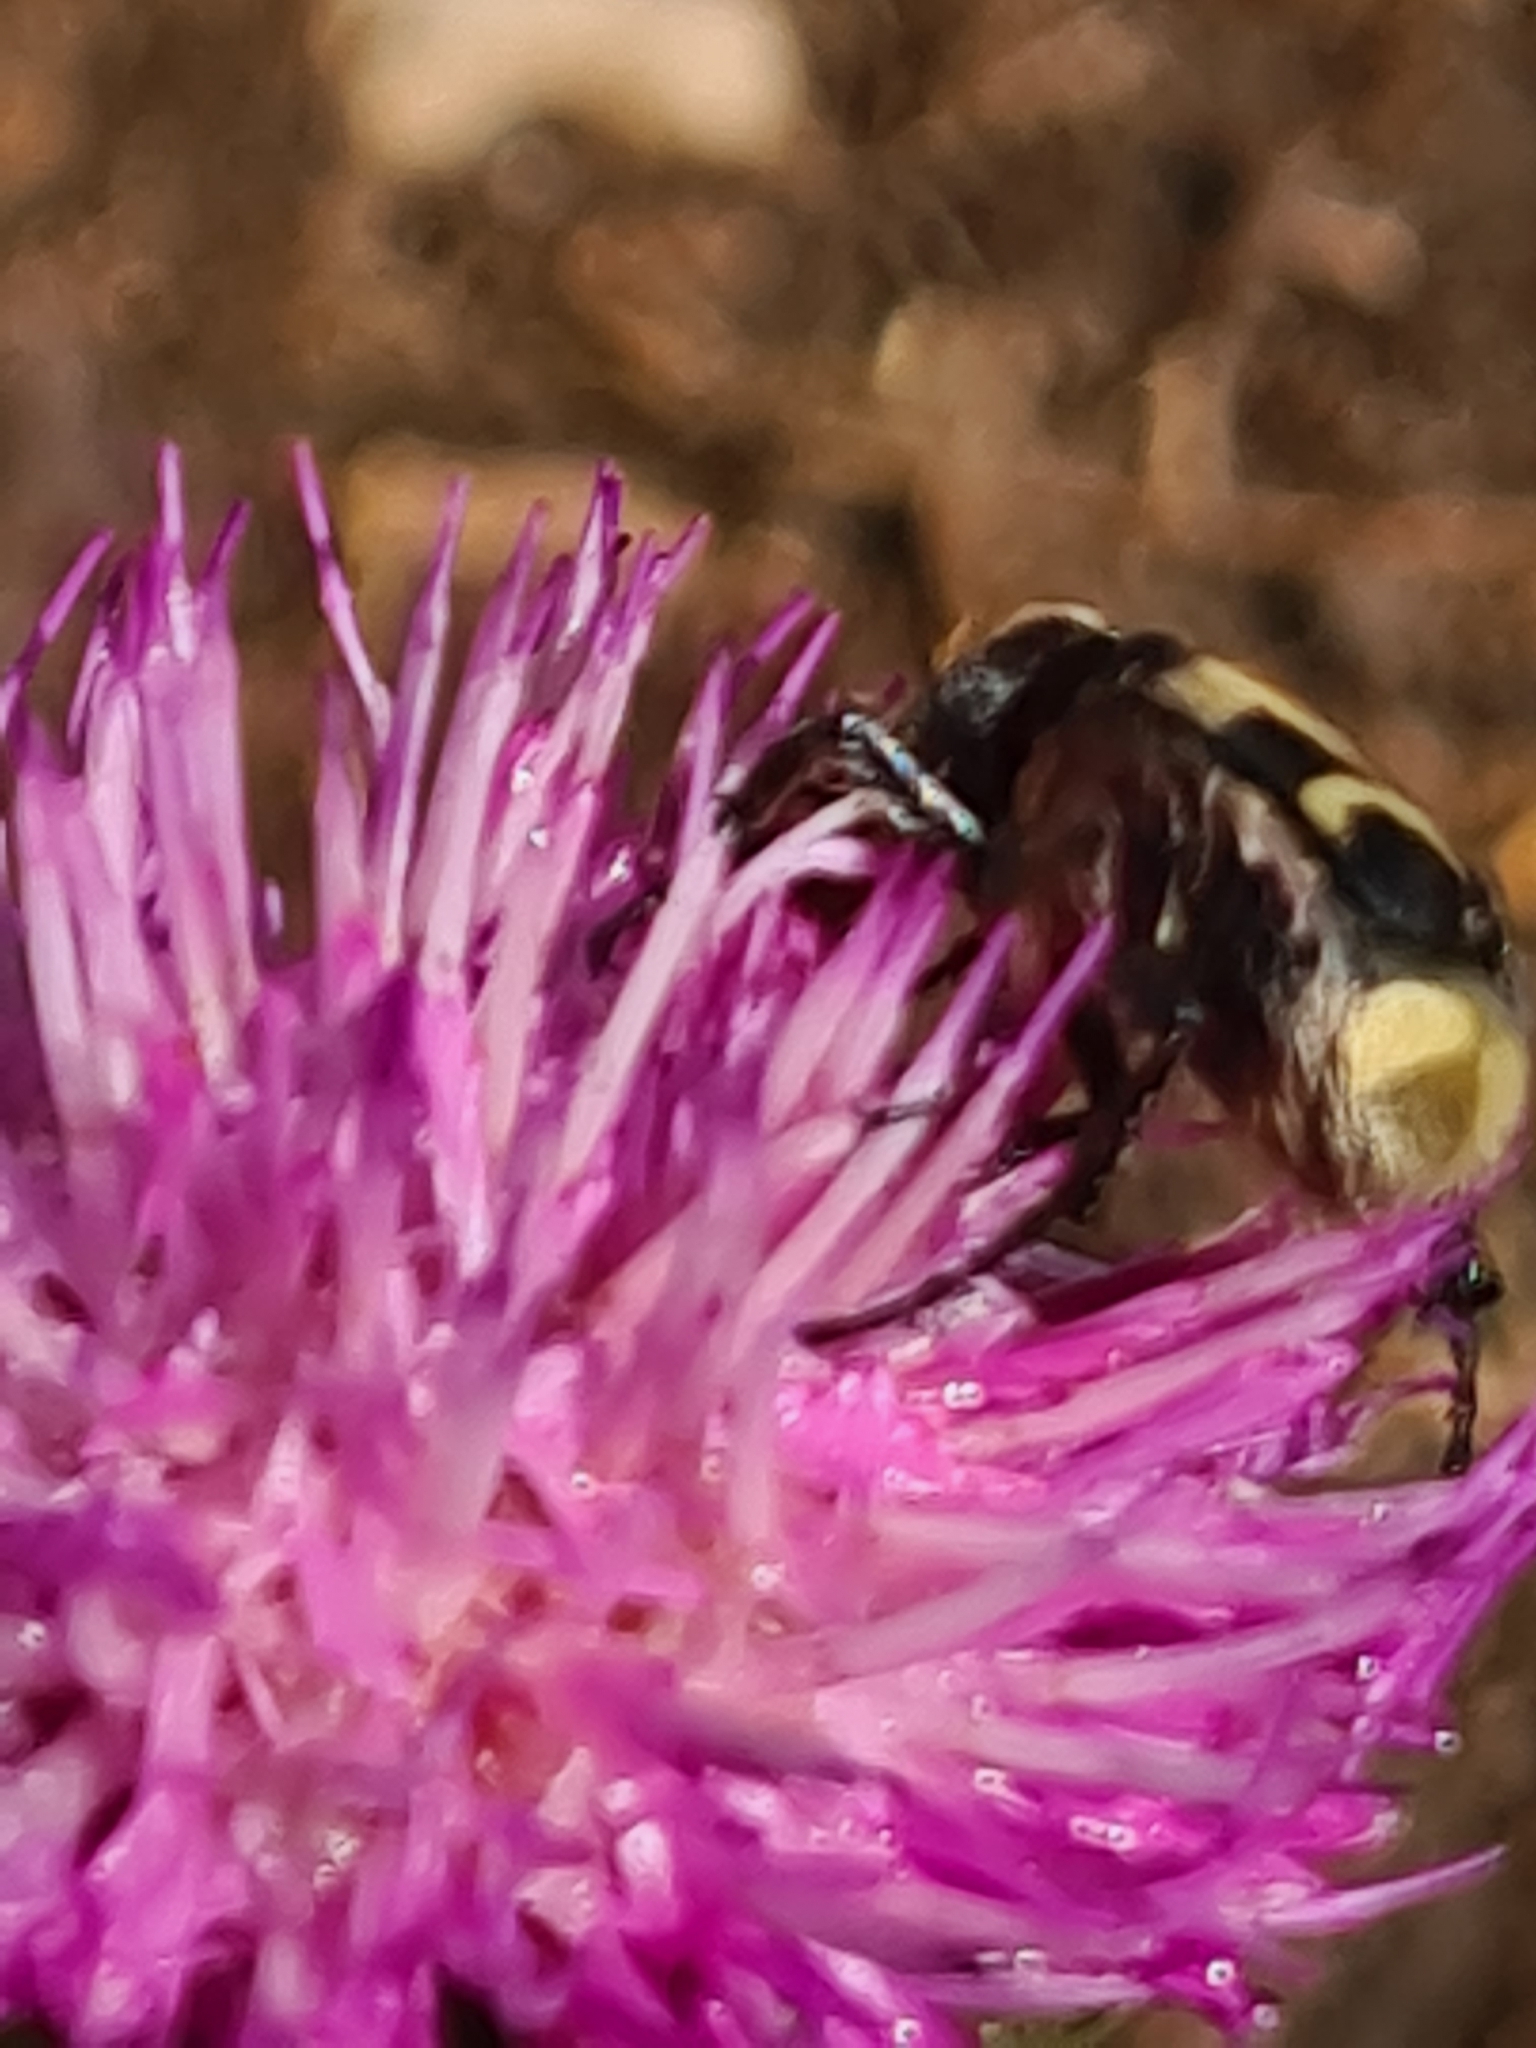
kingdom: Animalia
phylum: Arthropoda
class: Insecta
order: Coleoptera
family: Scarabaeidae
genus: Trichius
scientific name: Trichius fasciatus
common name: Bee beetle
